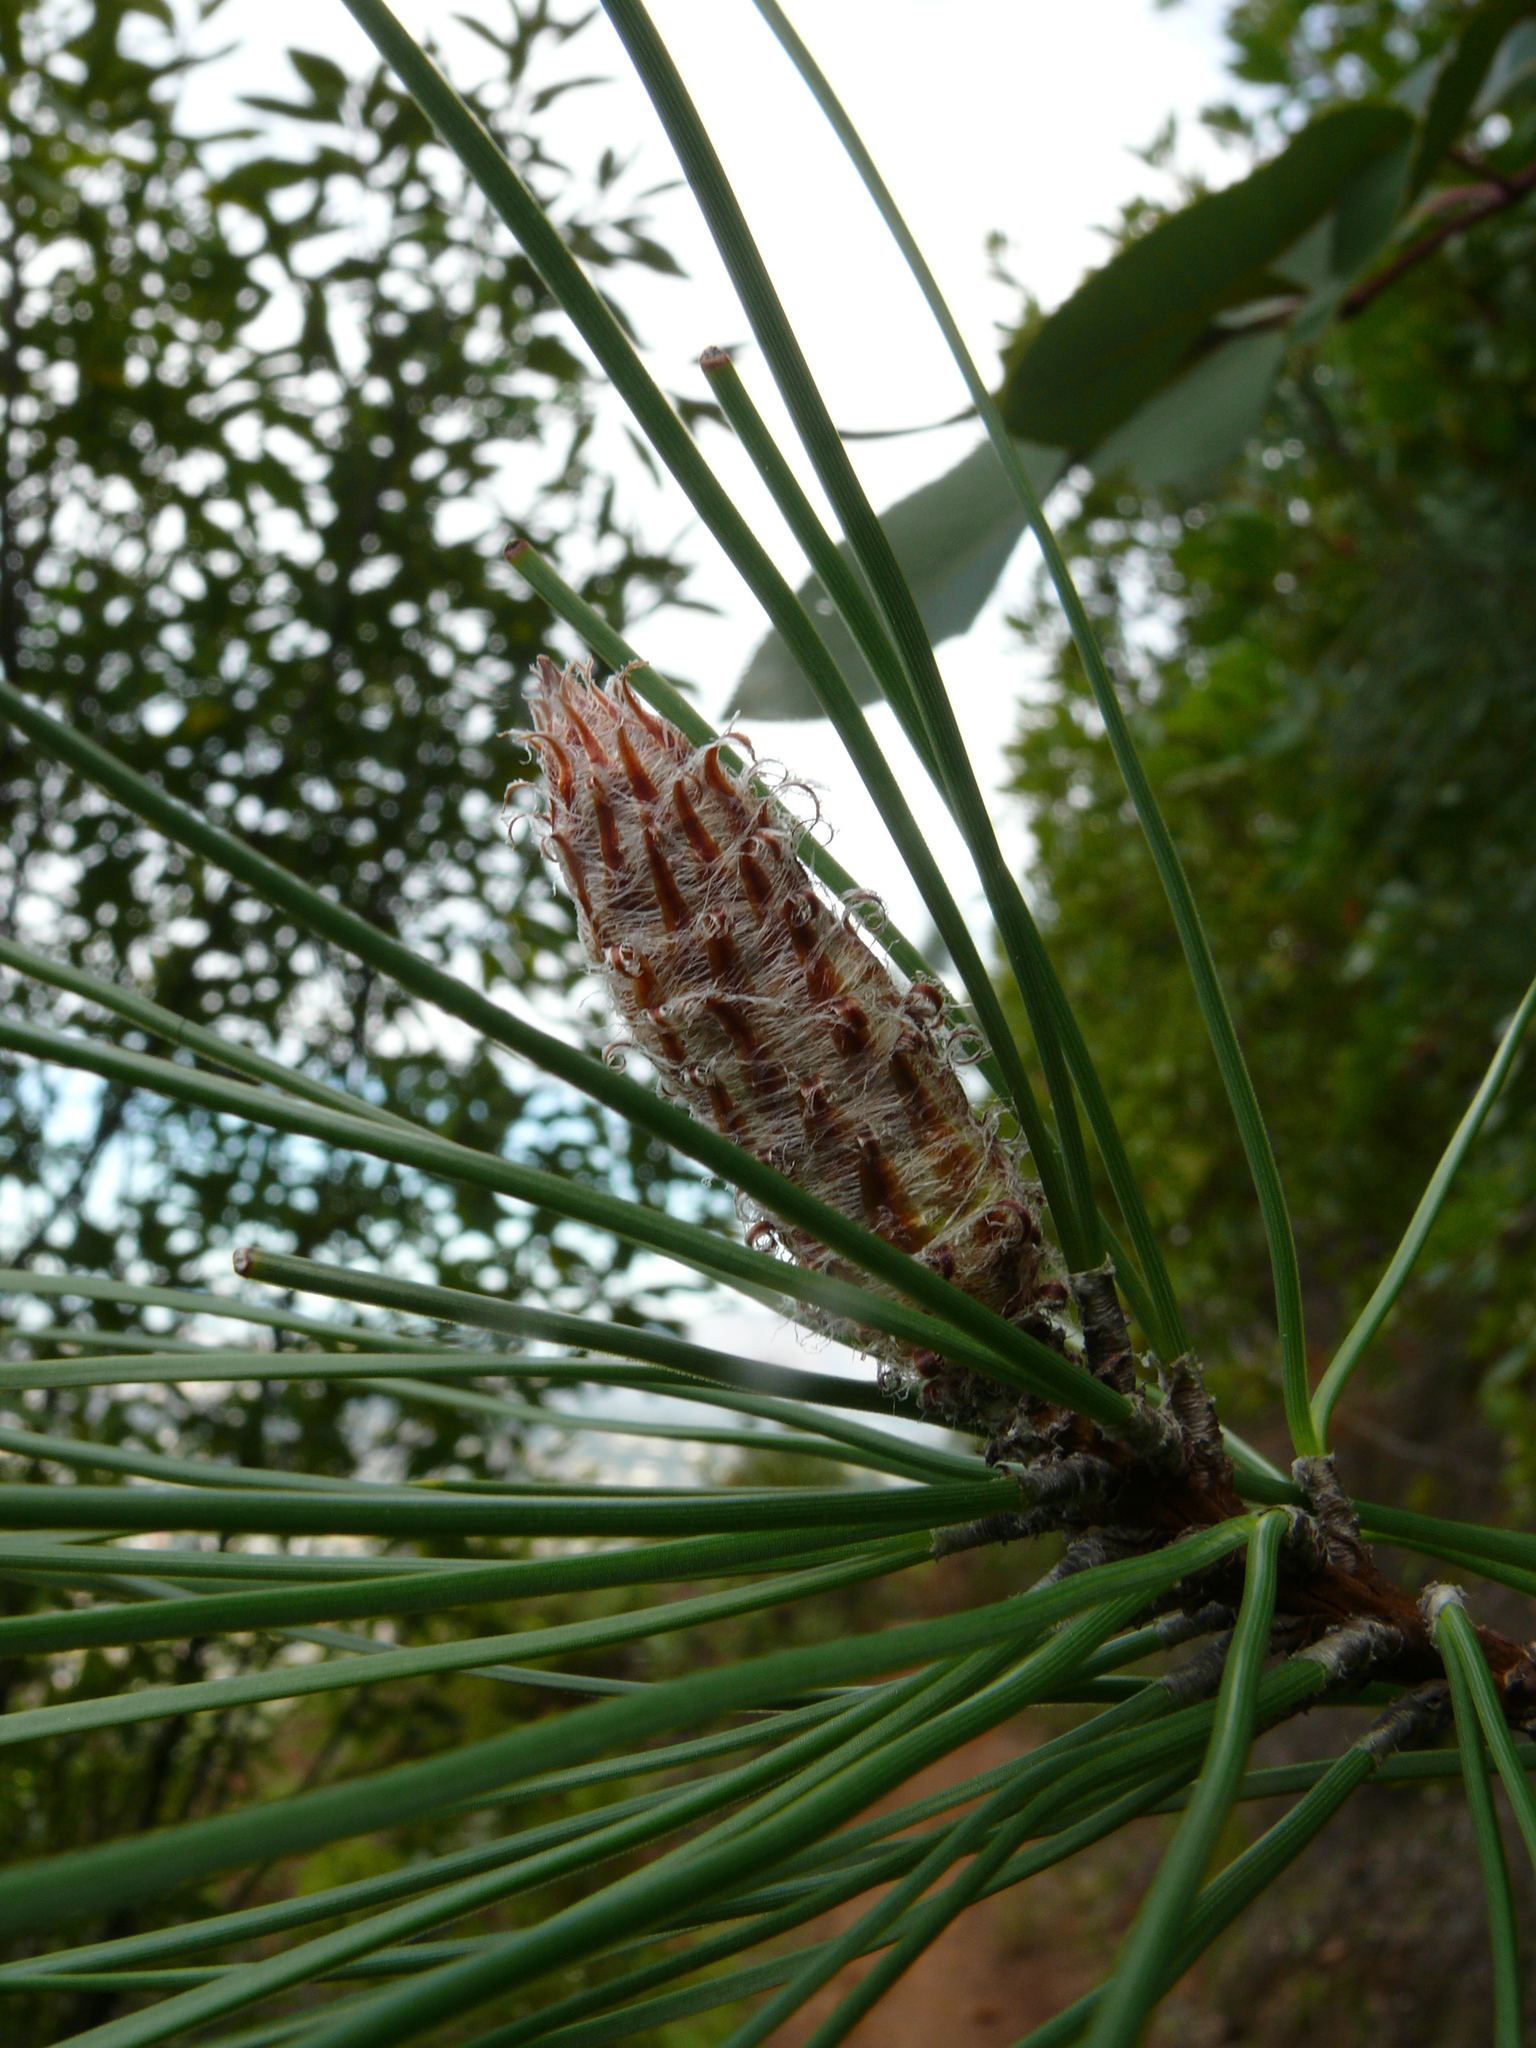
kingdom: Plantae
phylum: Tracheophyta
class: Pinopsida
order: Pinales
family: Pinaceae
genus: Pinus
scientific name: Pinus pinaster
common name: Maritime pine
